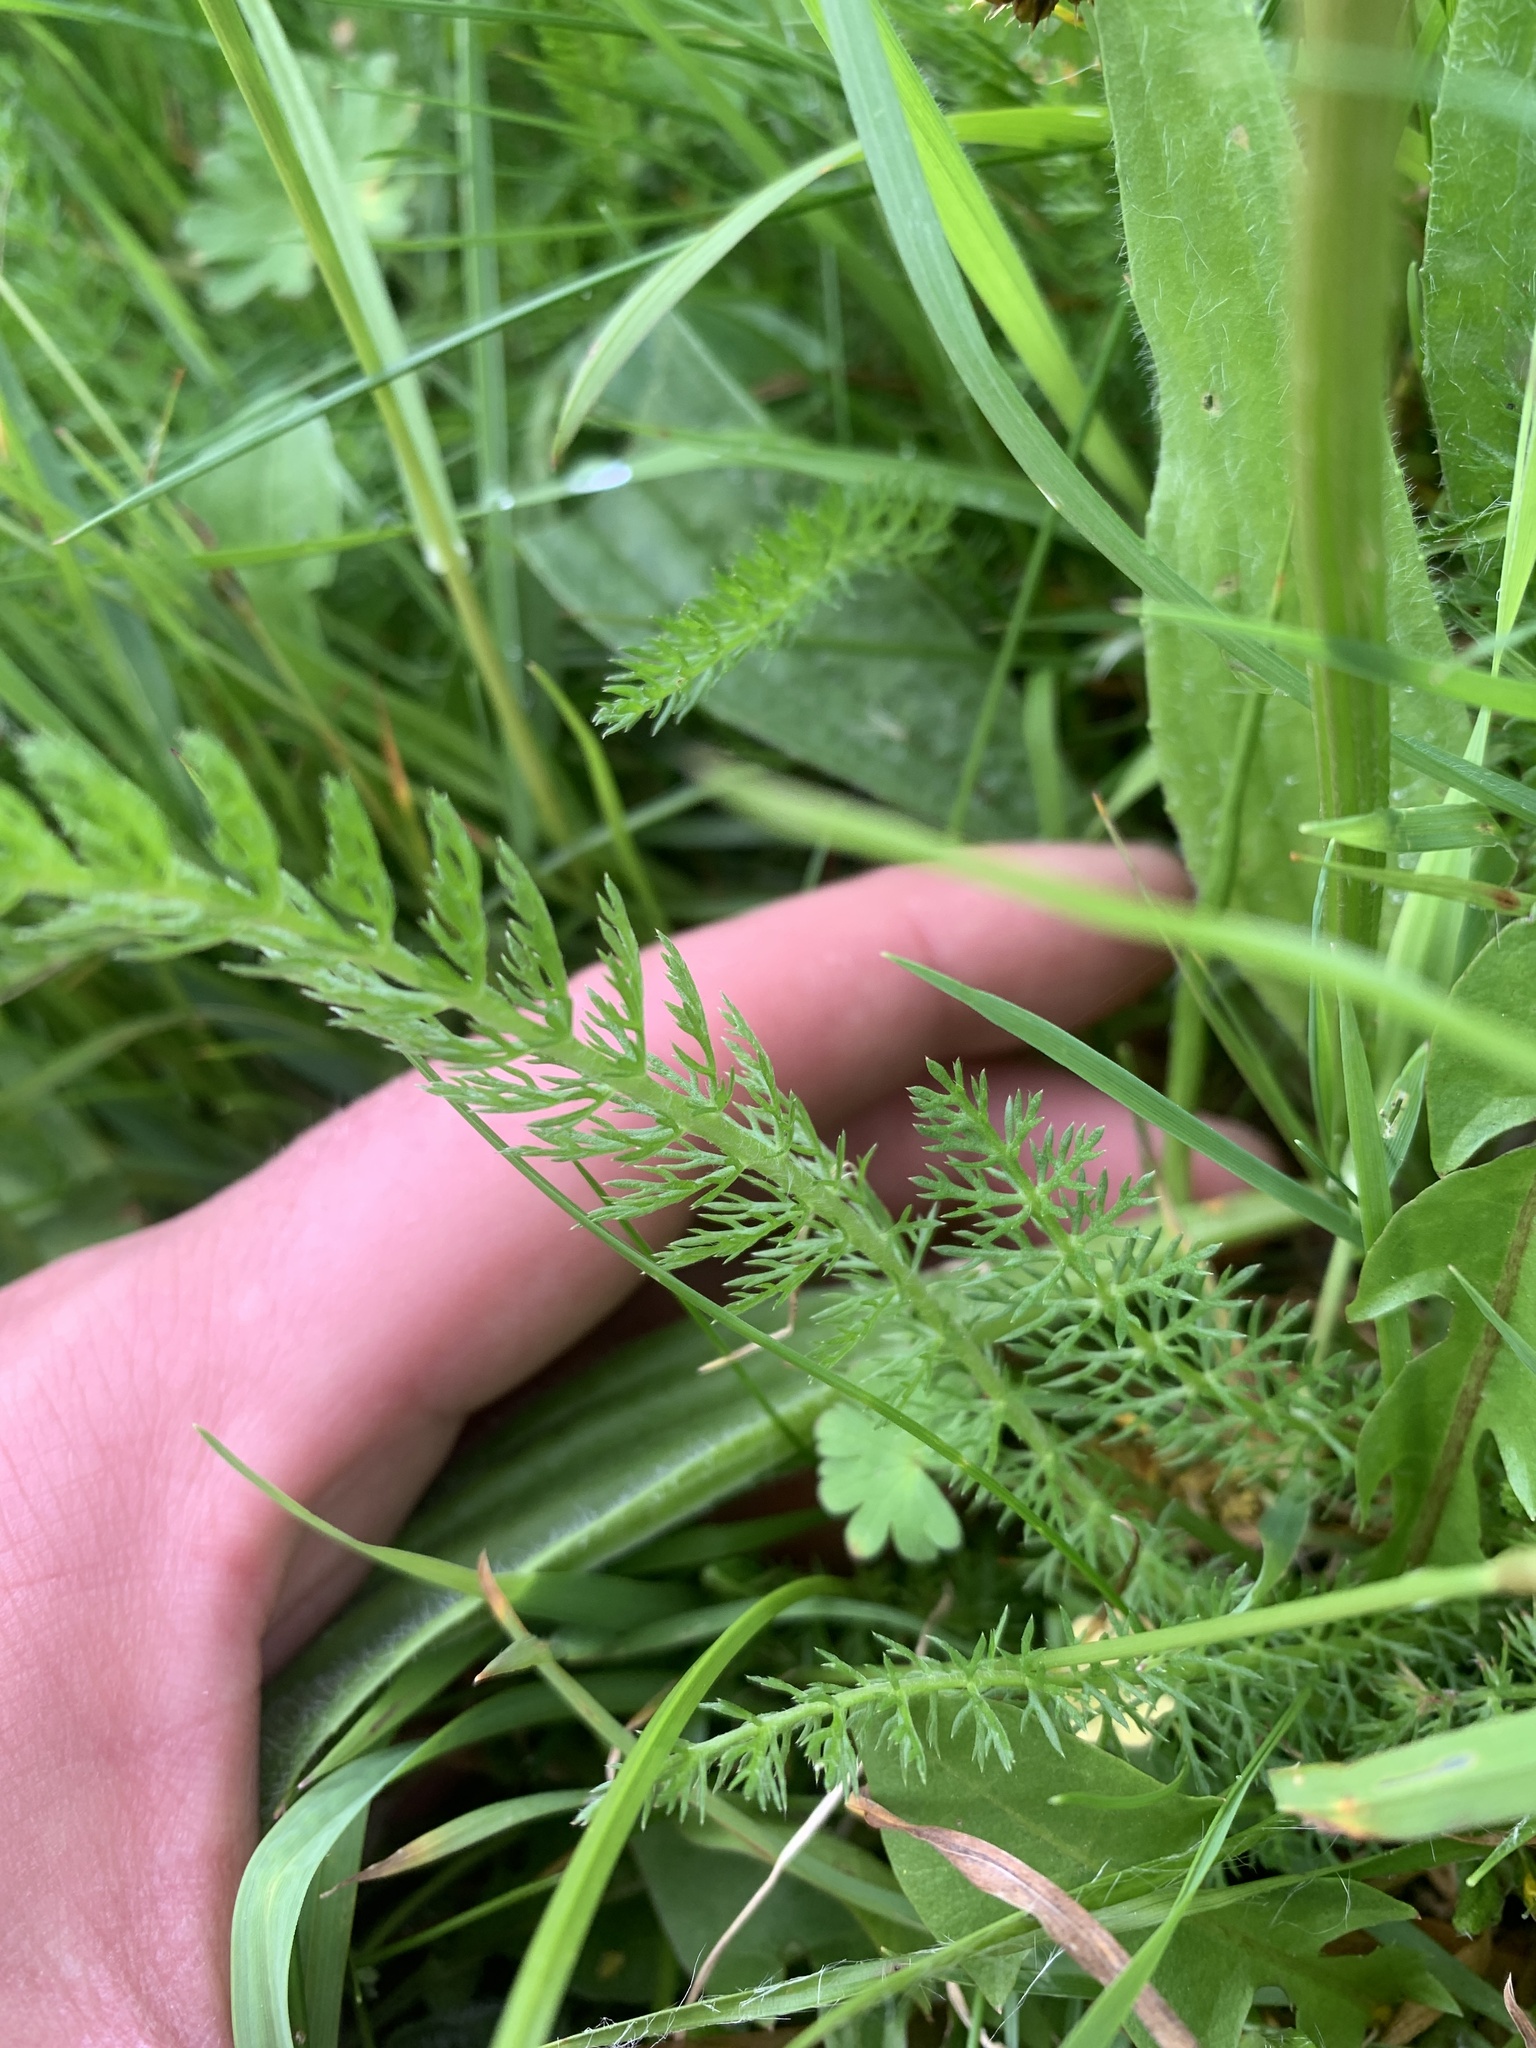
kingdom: Plantae
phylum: Tracheophyta
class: Magnoliopsida
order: Asterales
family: Asteraceae
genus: Achillea
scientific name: Achillea millefolium
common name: Yarrow
